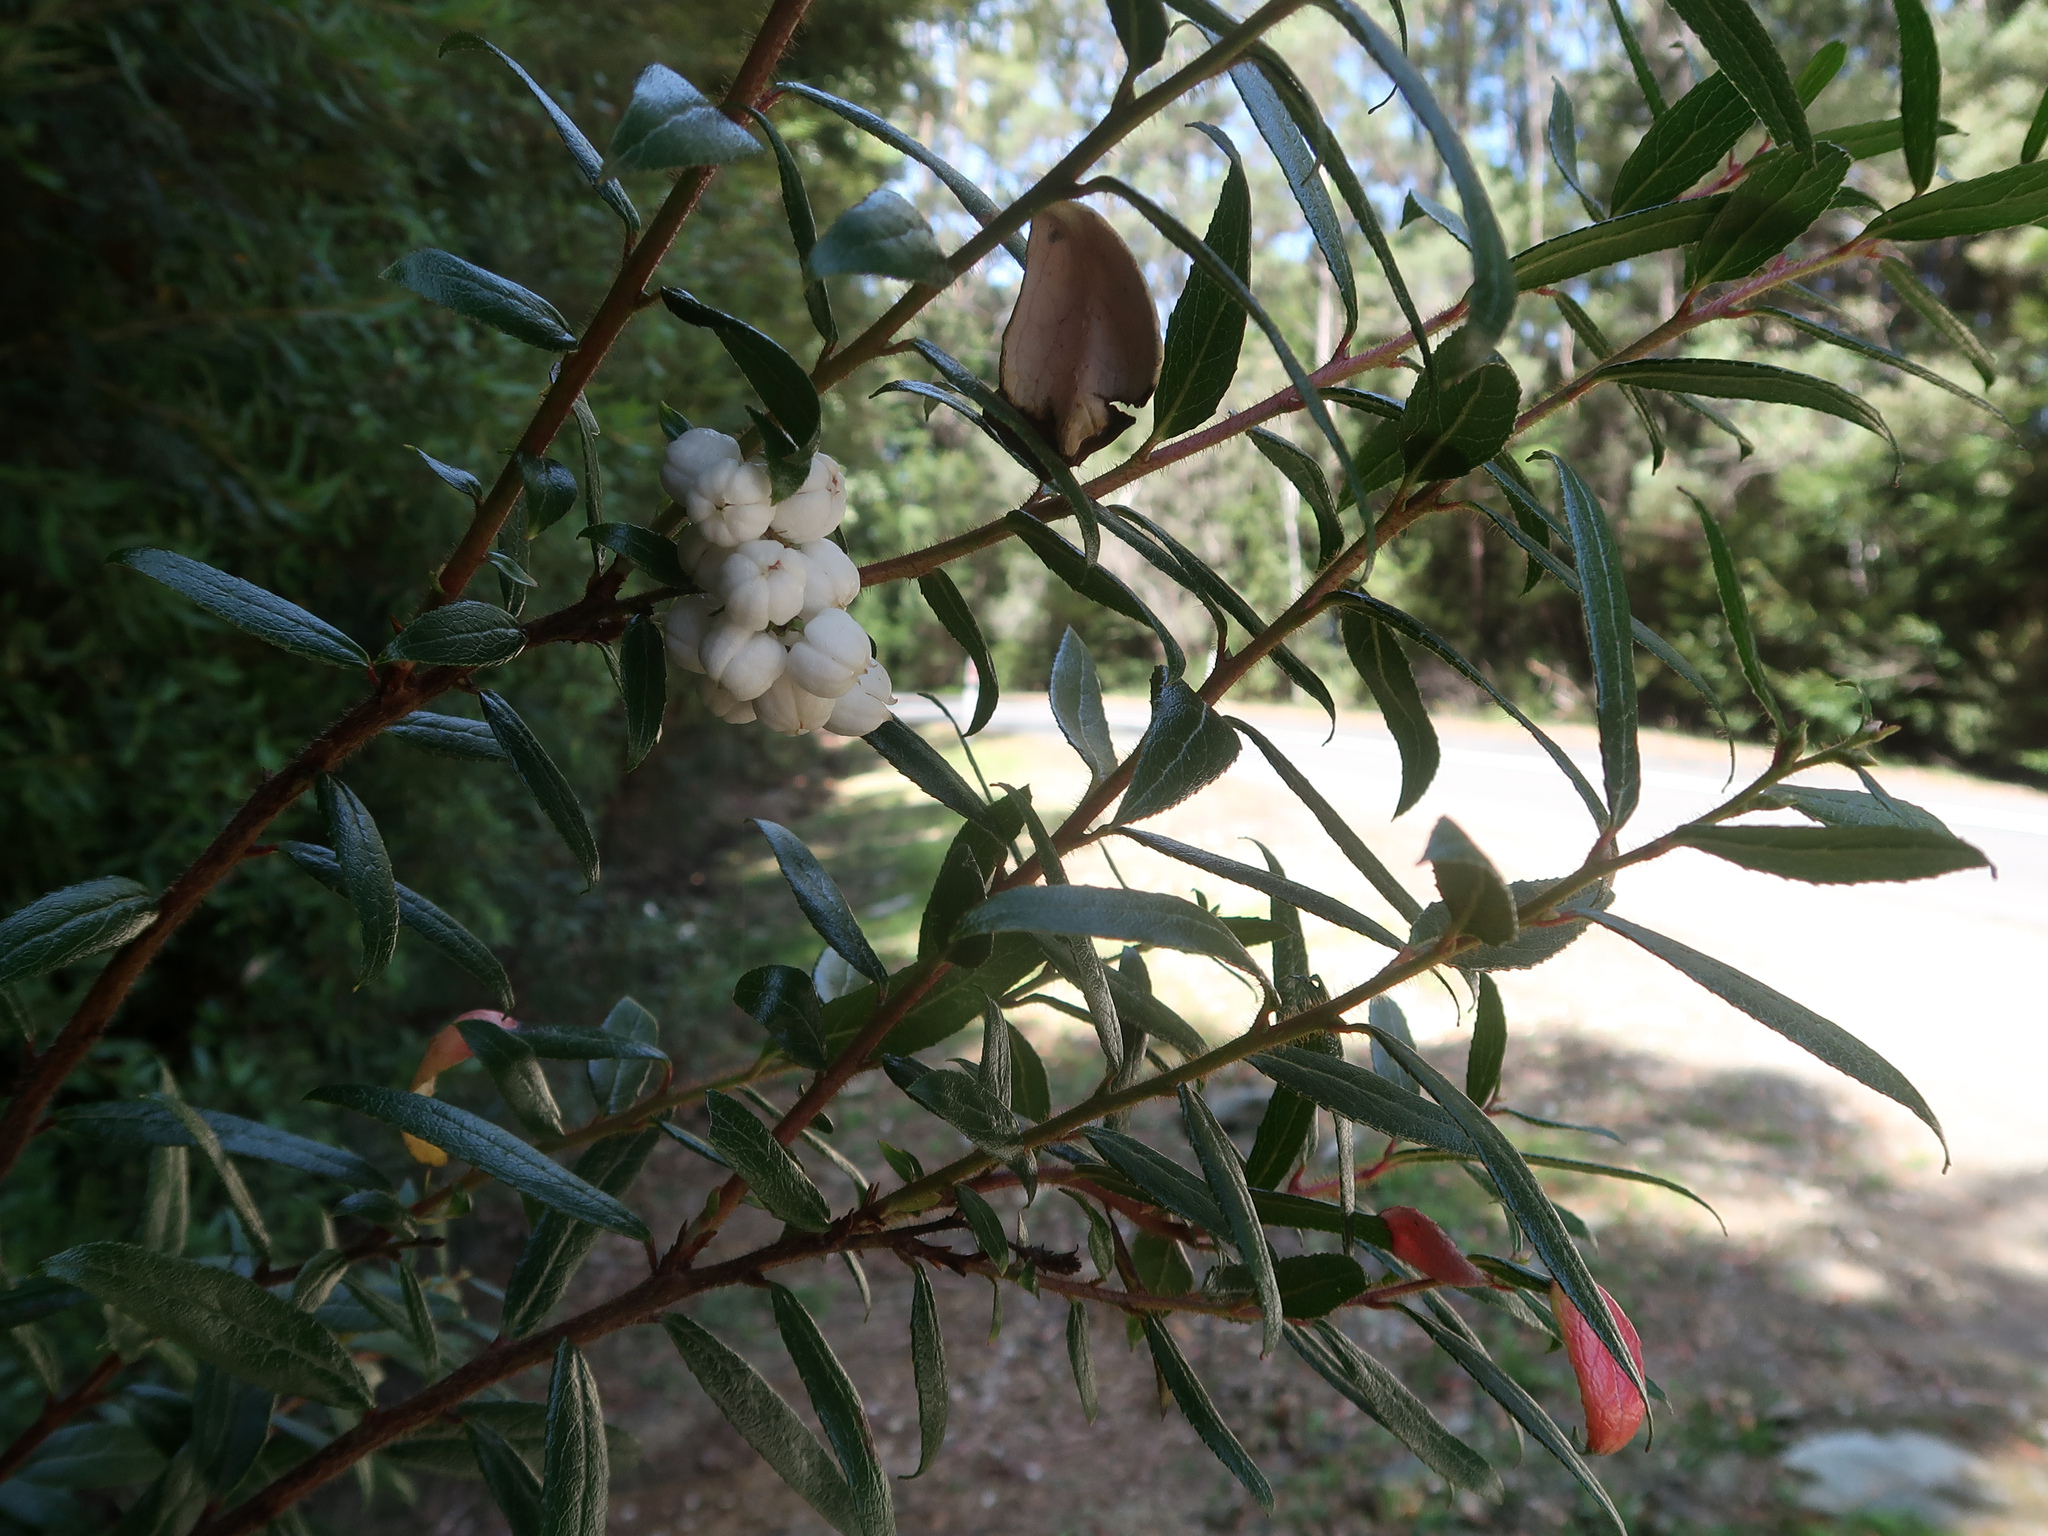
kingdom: Plantae
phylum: Tracheophyta
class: Magnoliopsida
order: Ericales
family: Ericaceae
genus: Gaultheria
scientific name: Gaultheria hispida
